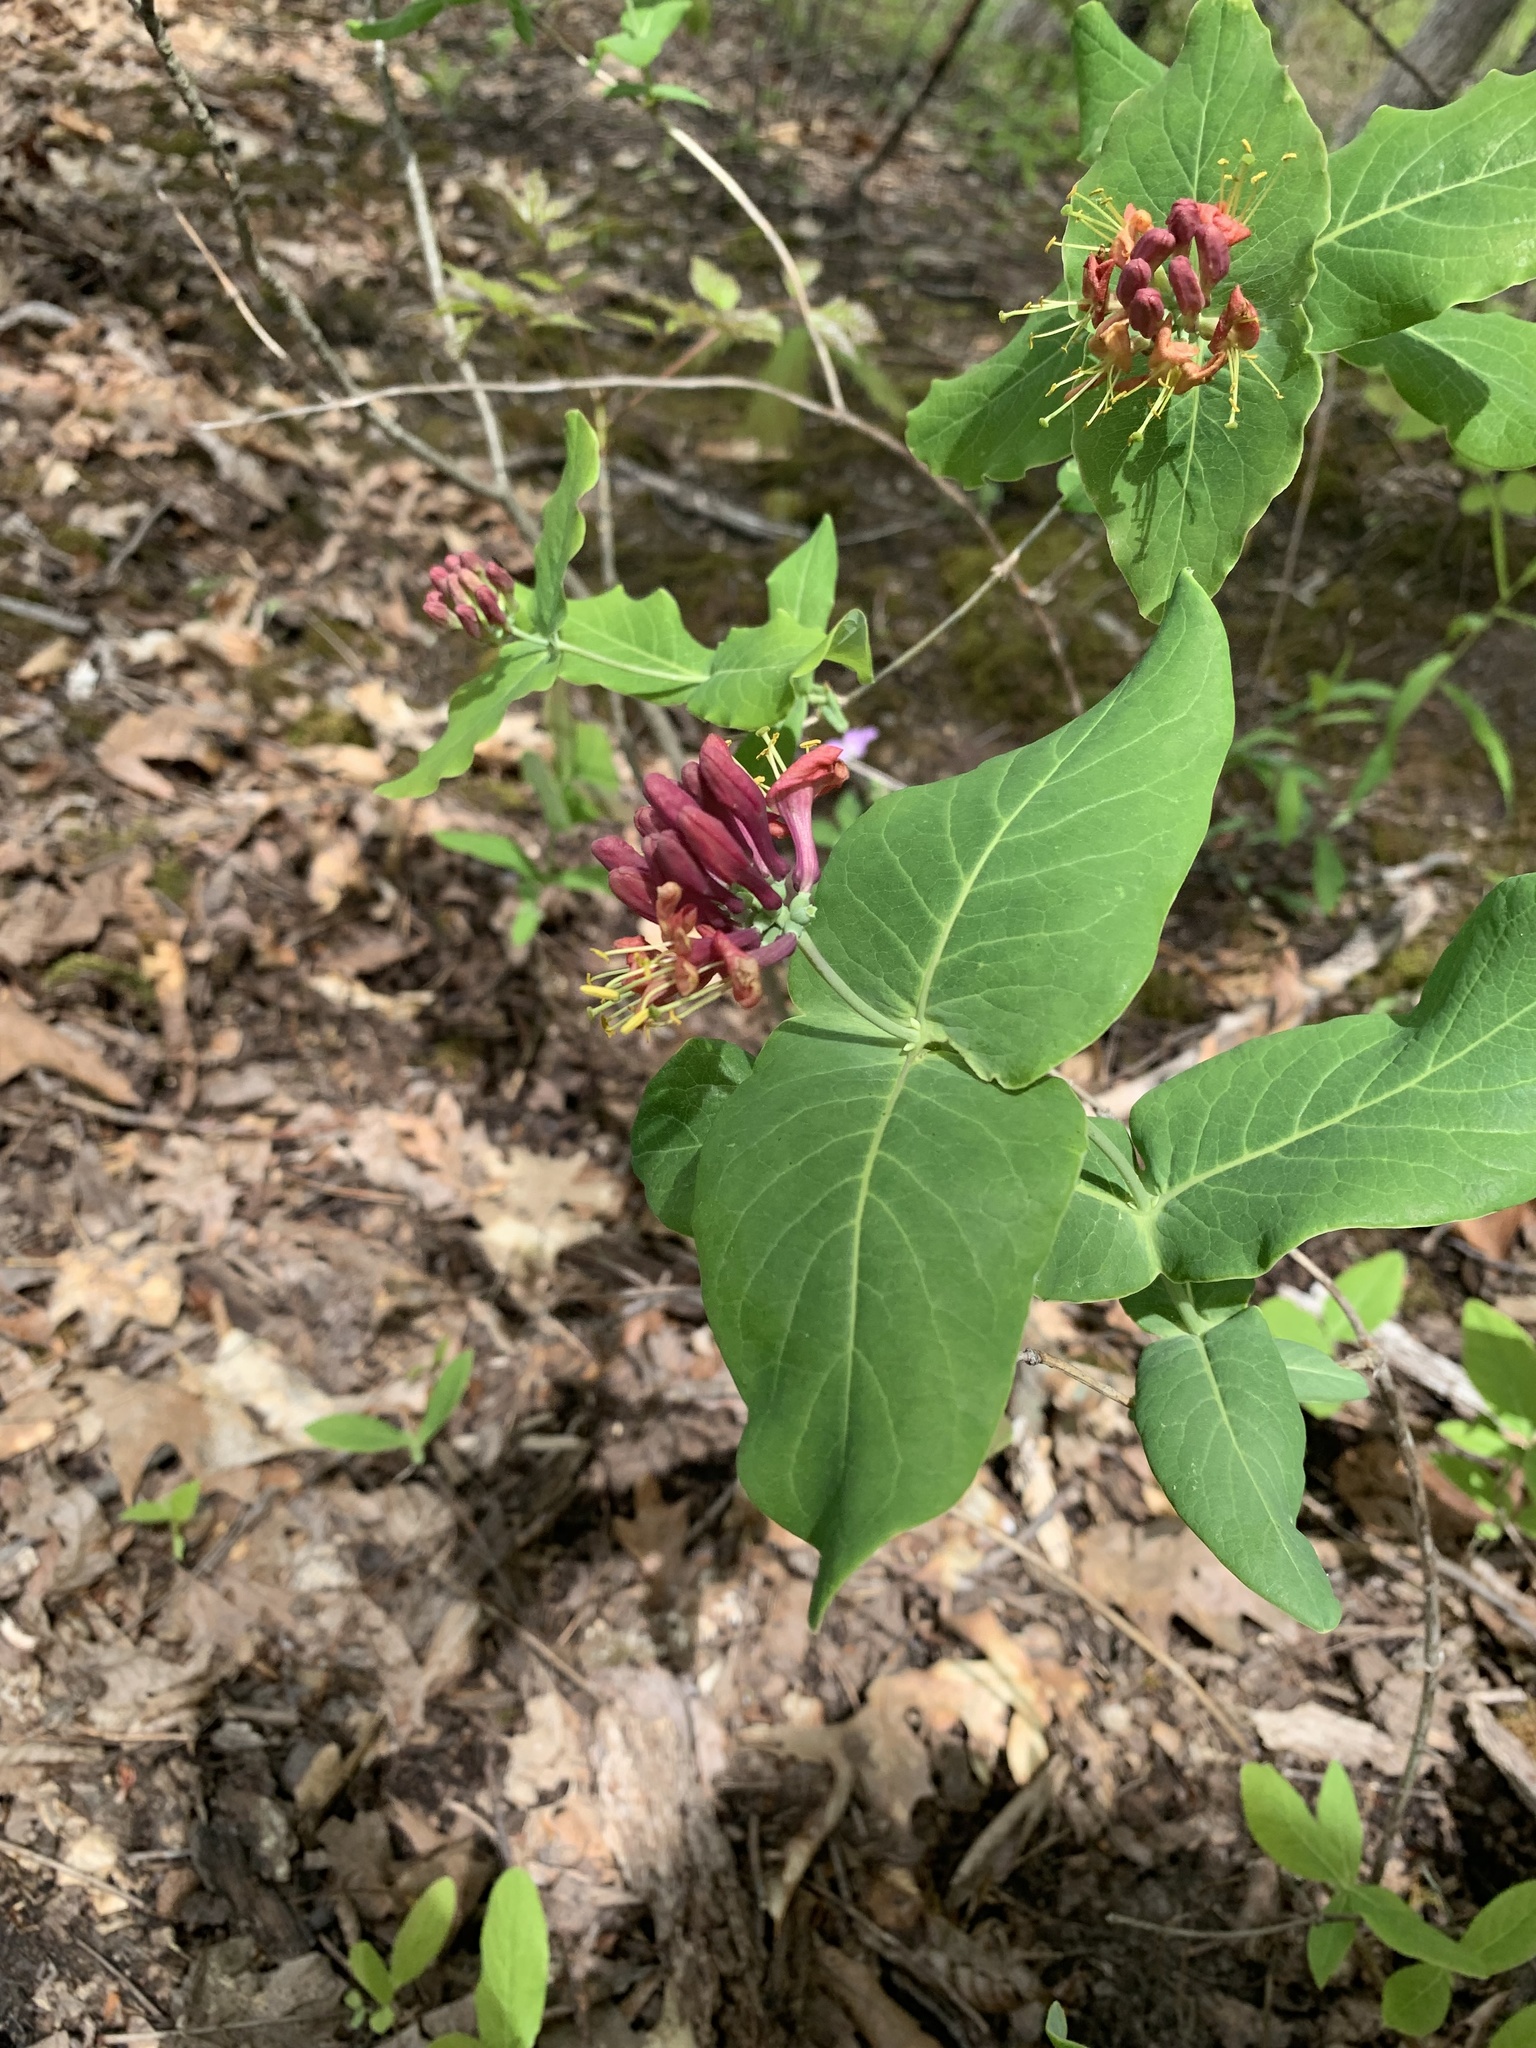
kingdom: Plantae
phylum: Tracheophyta
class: Magnoliopsida
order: Dipsacales
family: Caprifoliaceae
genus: Lonicera
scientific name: Lonicera dioica
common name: Limber honeysuckle
